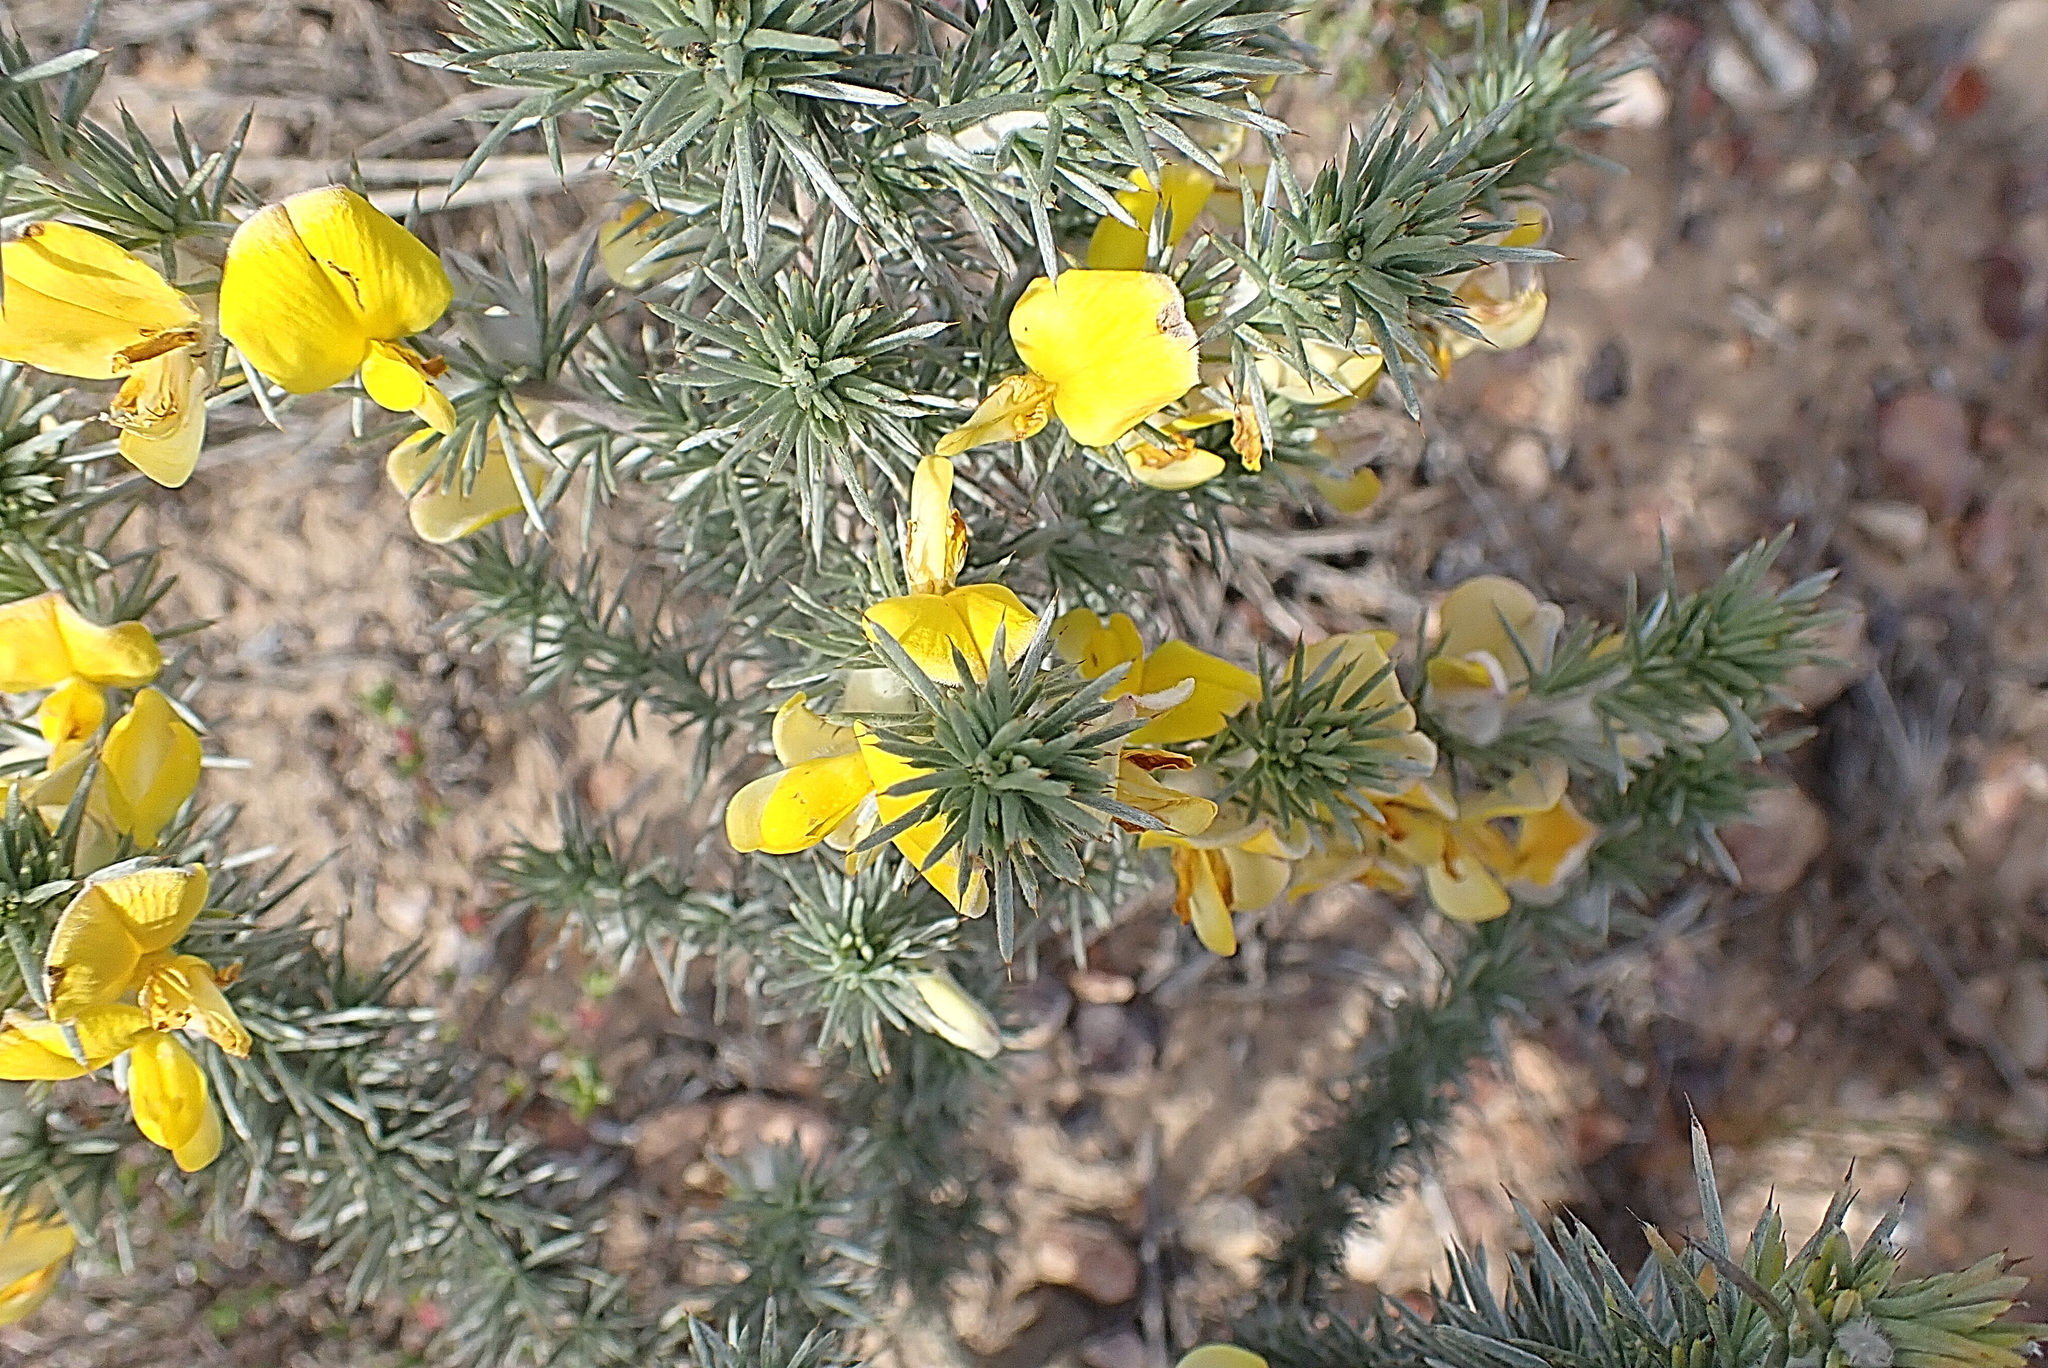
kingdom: Plantae
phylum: Tracheophyta
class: Magnoliopsida
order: Fabales
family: Fabaceae
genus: Aspalathus
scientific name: Aspalathus hystrix
